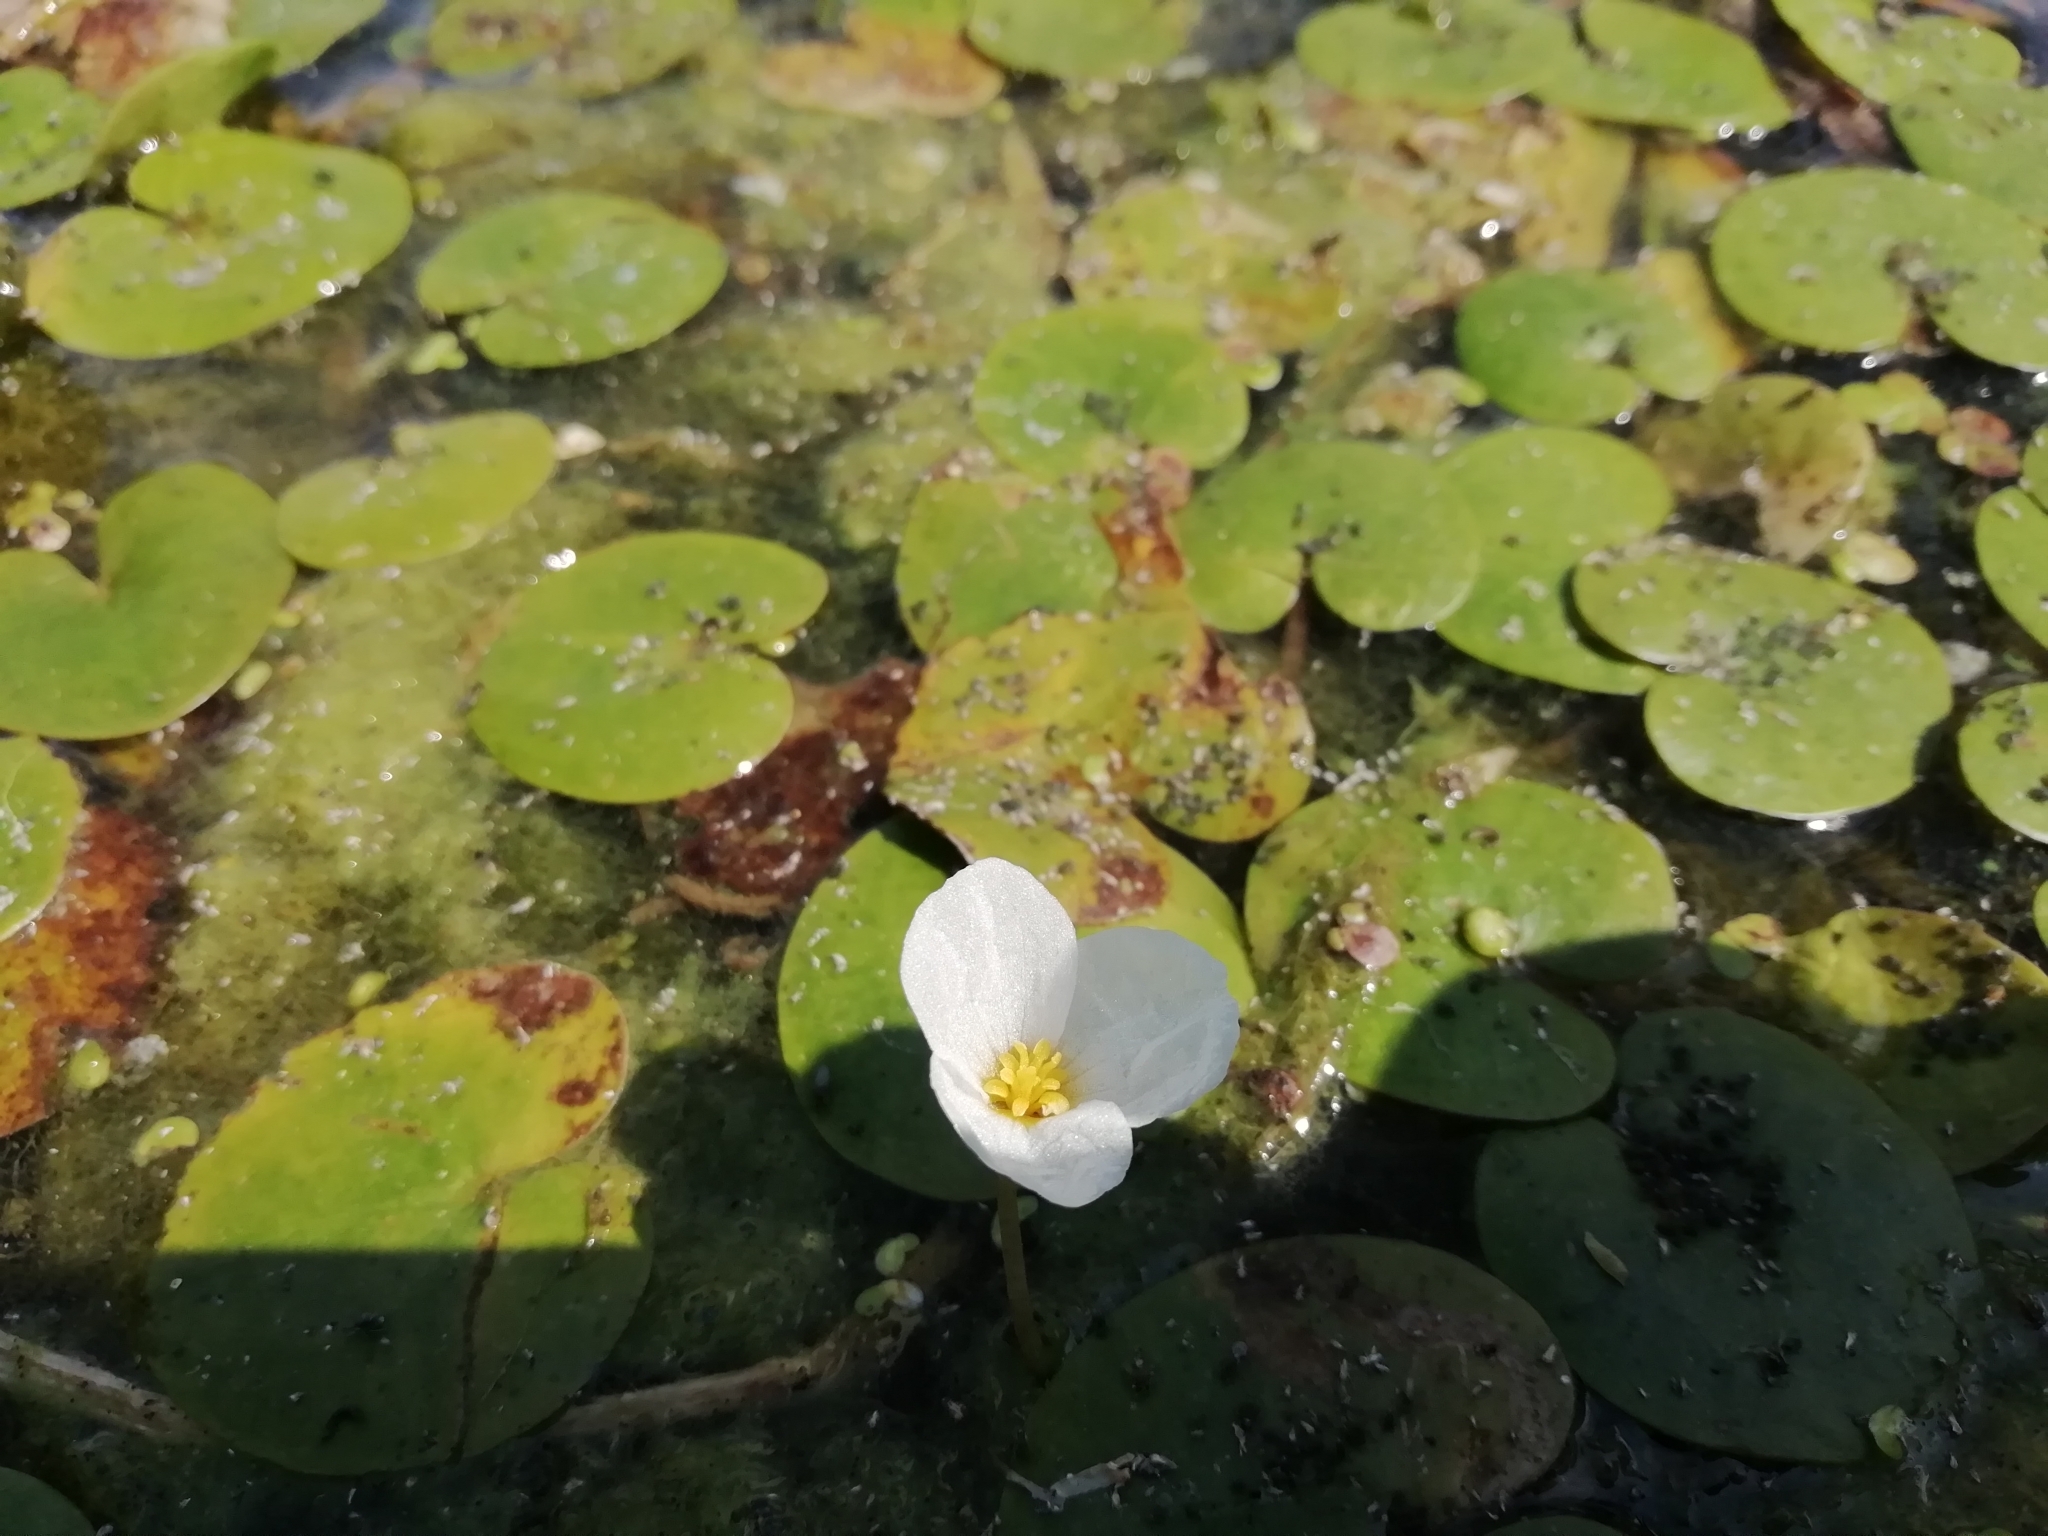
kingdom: Plantae
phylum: Tracheophyta
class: Liliopsida
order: Alismatales
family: Hydrocharitaceae
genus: Hydrocharis
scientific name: Hydrocharis morsus-ranae
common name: Frogbit
